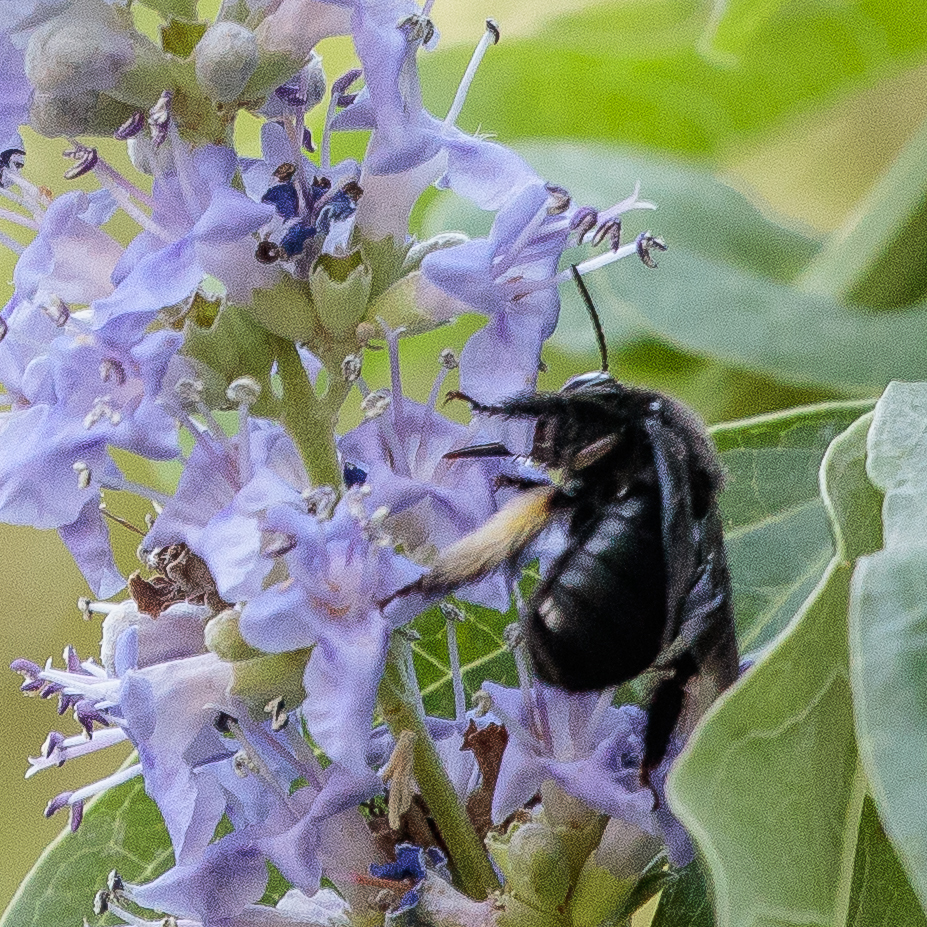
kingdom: Animalia
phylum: Arthropoda
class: Insecta
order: Hymenoptera
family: Apidae
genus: Melissodes
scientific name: Melissodes bimaculatus
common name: Two-spotted long-horned bee
